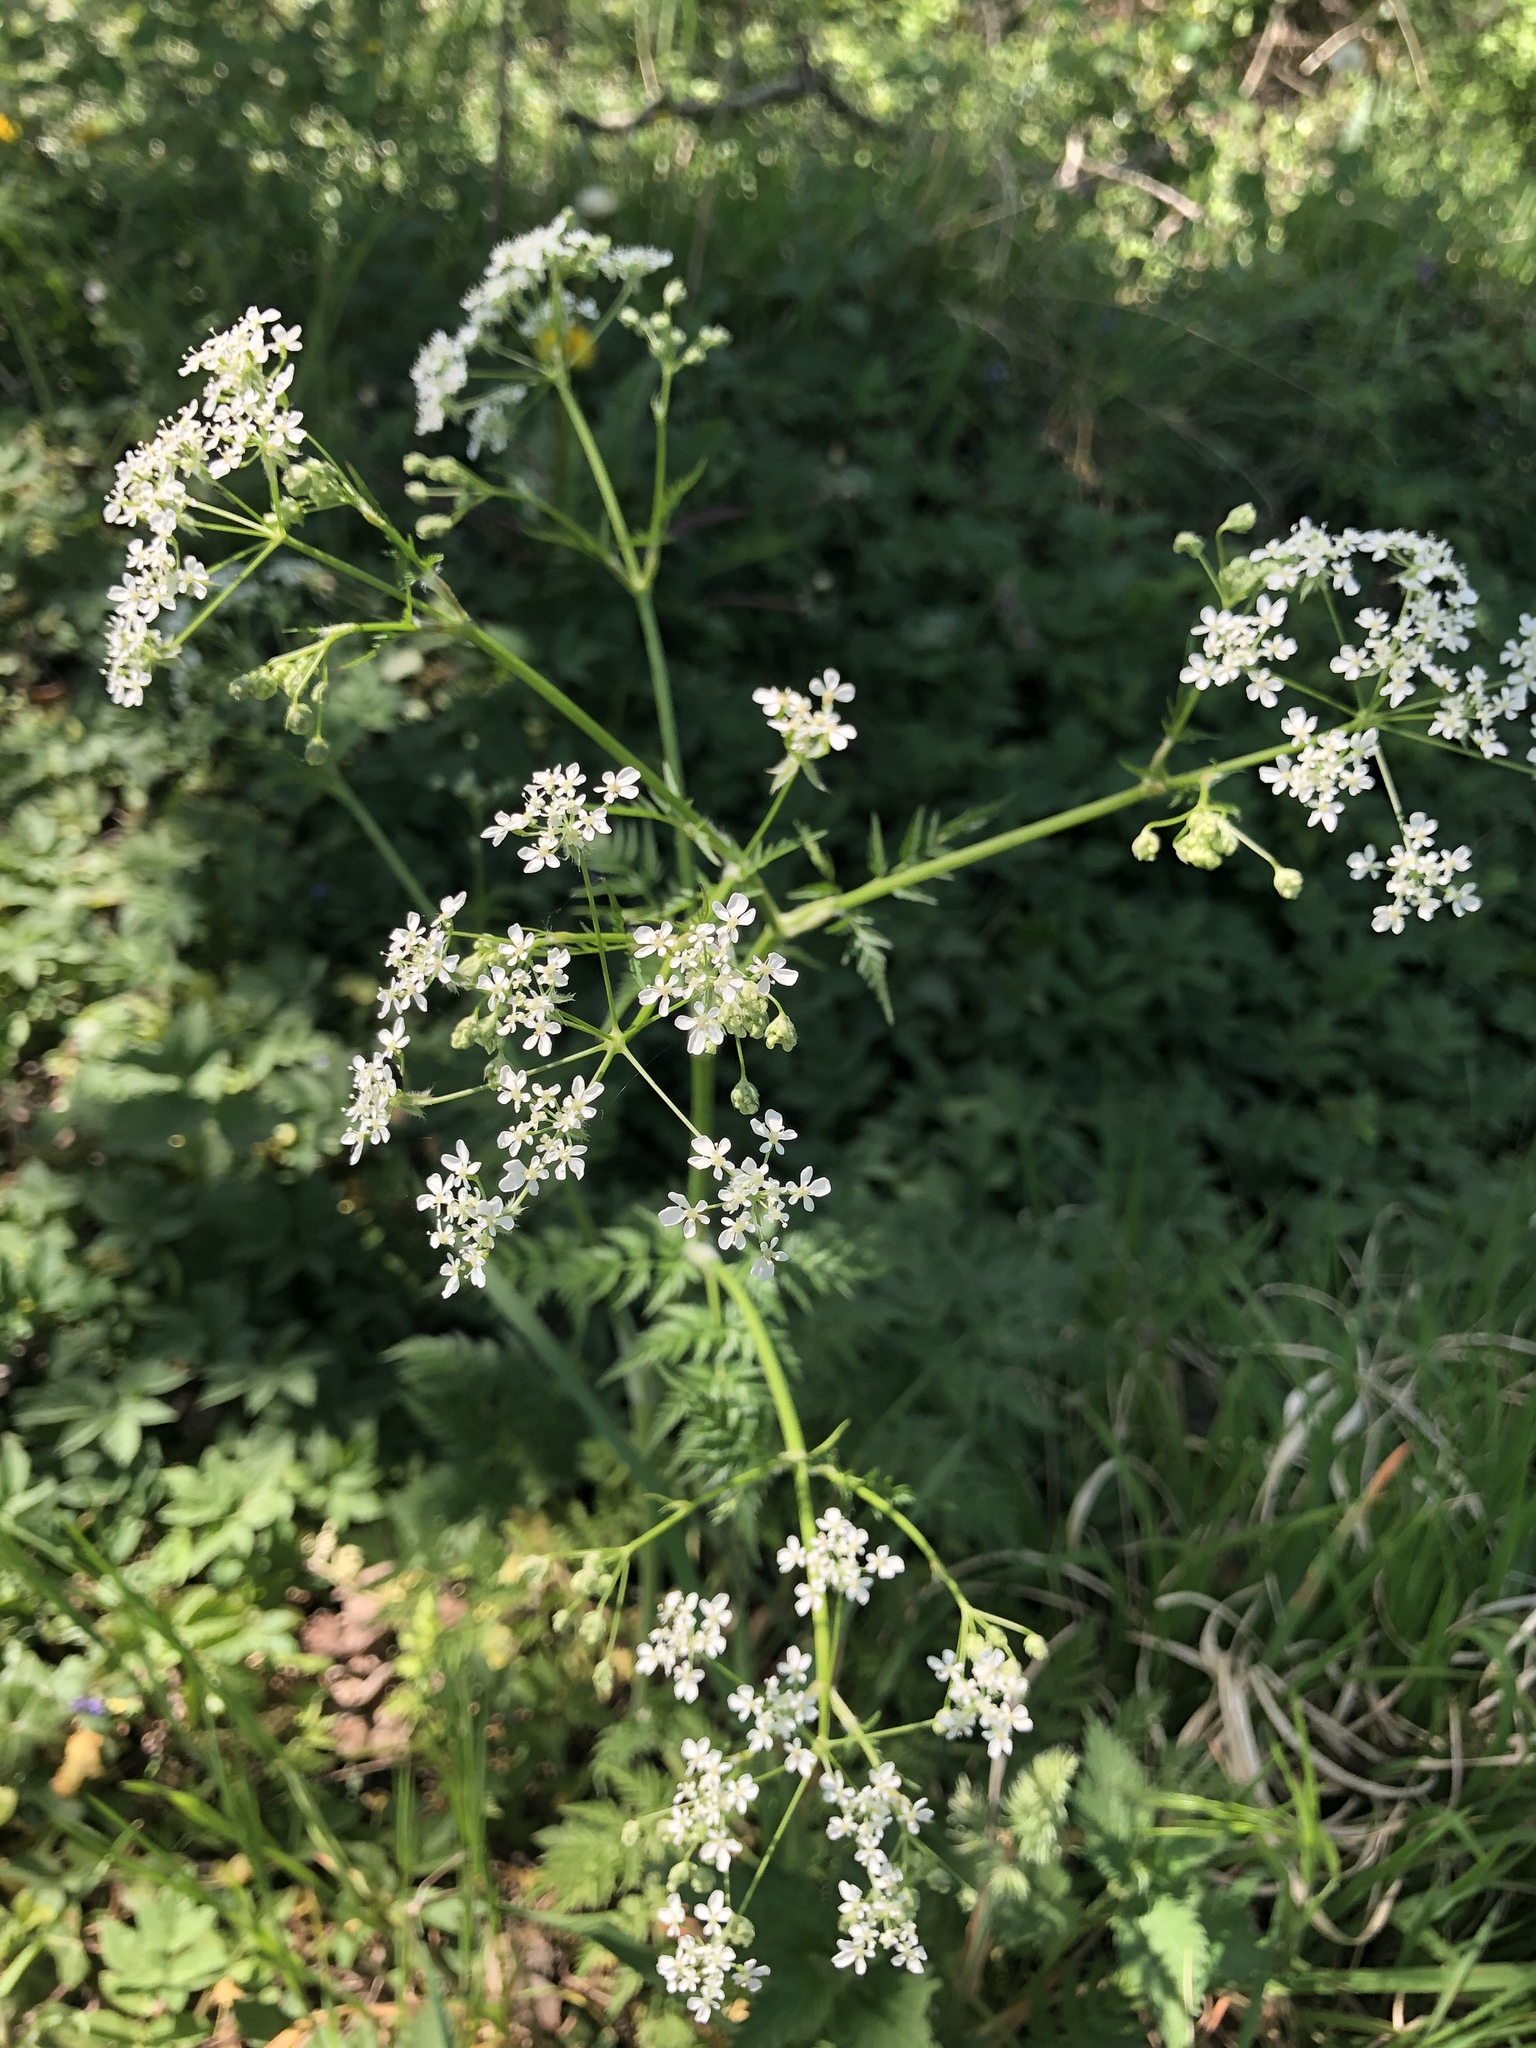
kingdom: Plantae
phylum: Tracheophyta
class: Magnoliopsida
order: Apiales
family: Apiaceae
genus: Anthriscus
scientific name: Anthriscus sylvestris
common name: Cow parsley
